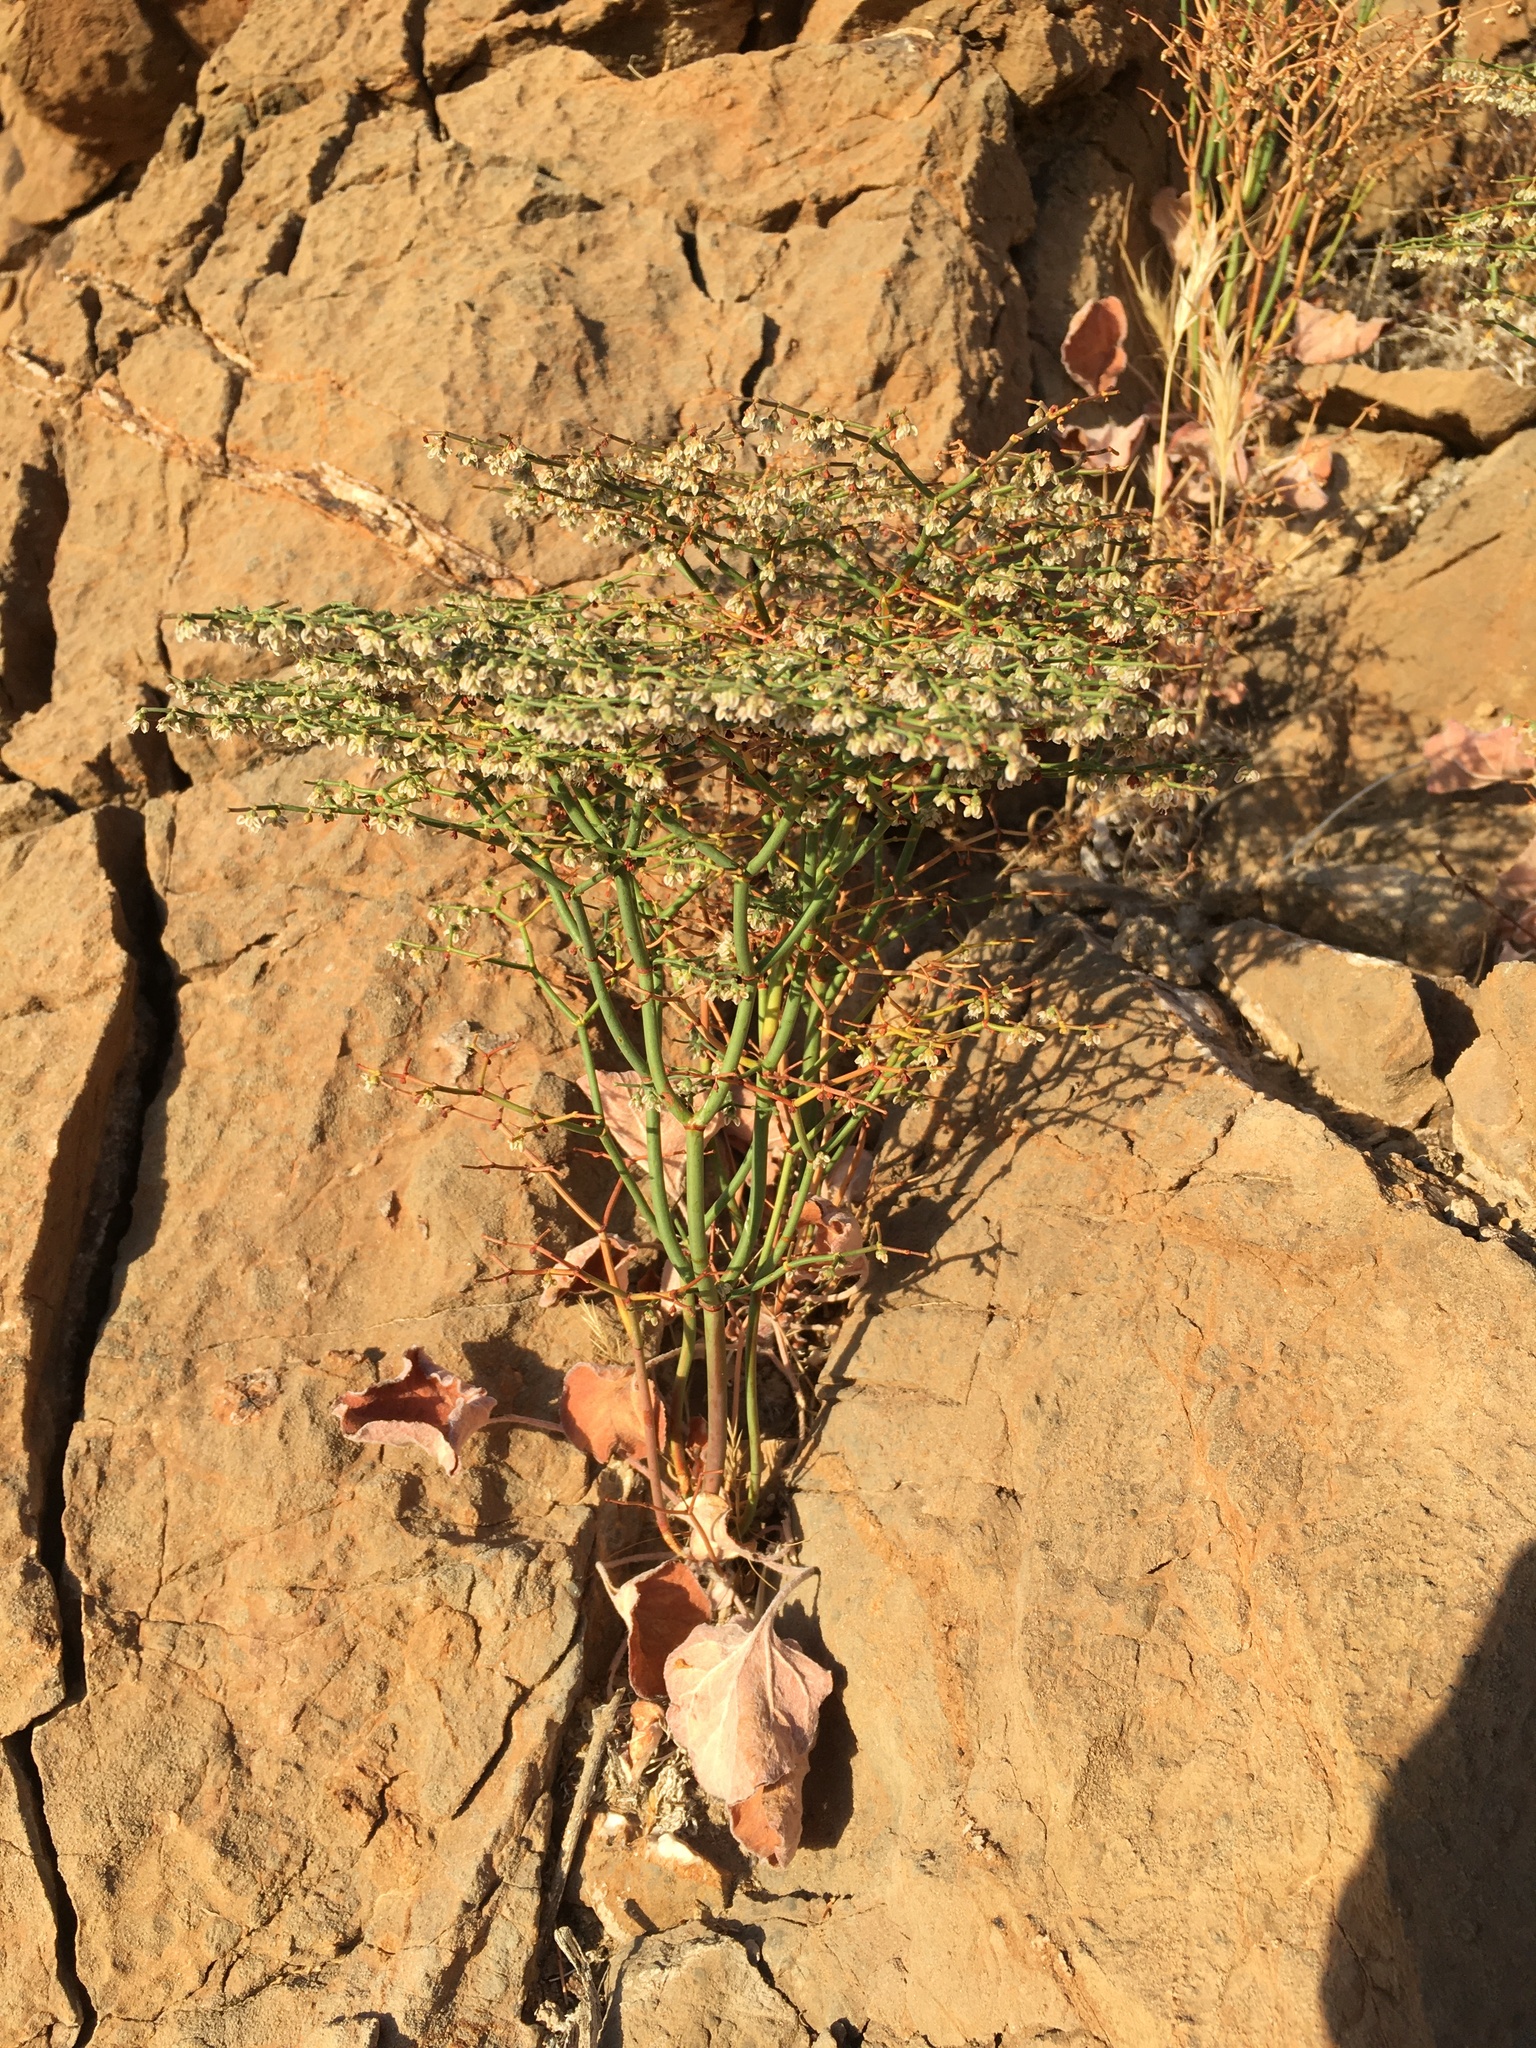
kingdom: Plantae
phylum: Tracheophyta
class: Magnoliopsida
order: Caryophyllales
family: Polygonaceae
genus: Eriogonum
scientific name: Eriogonum rixfordii
